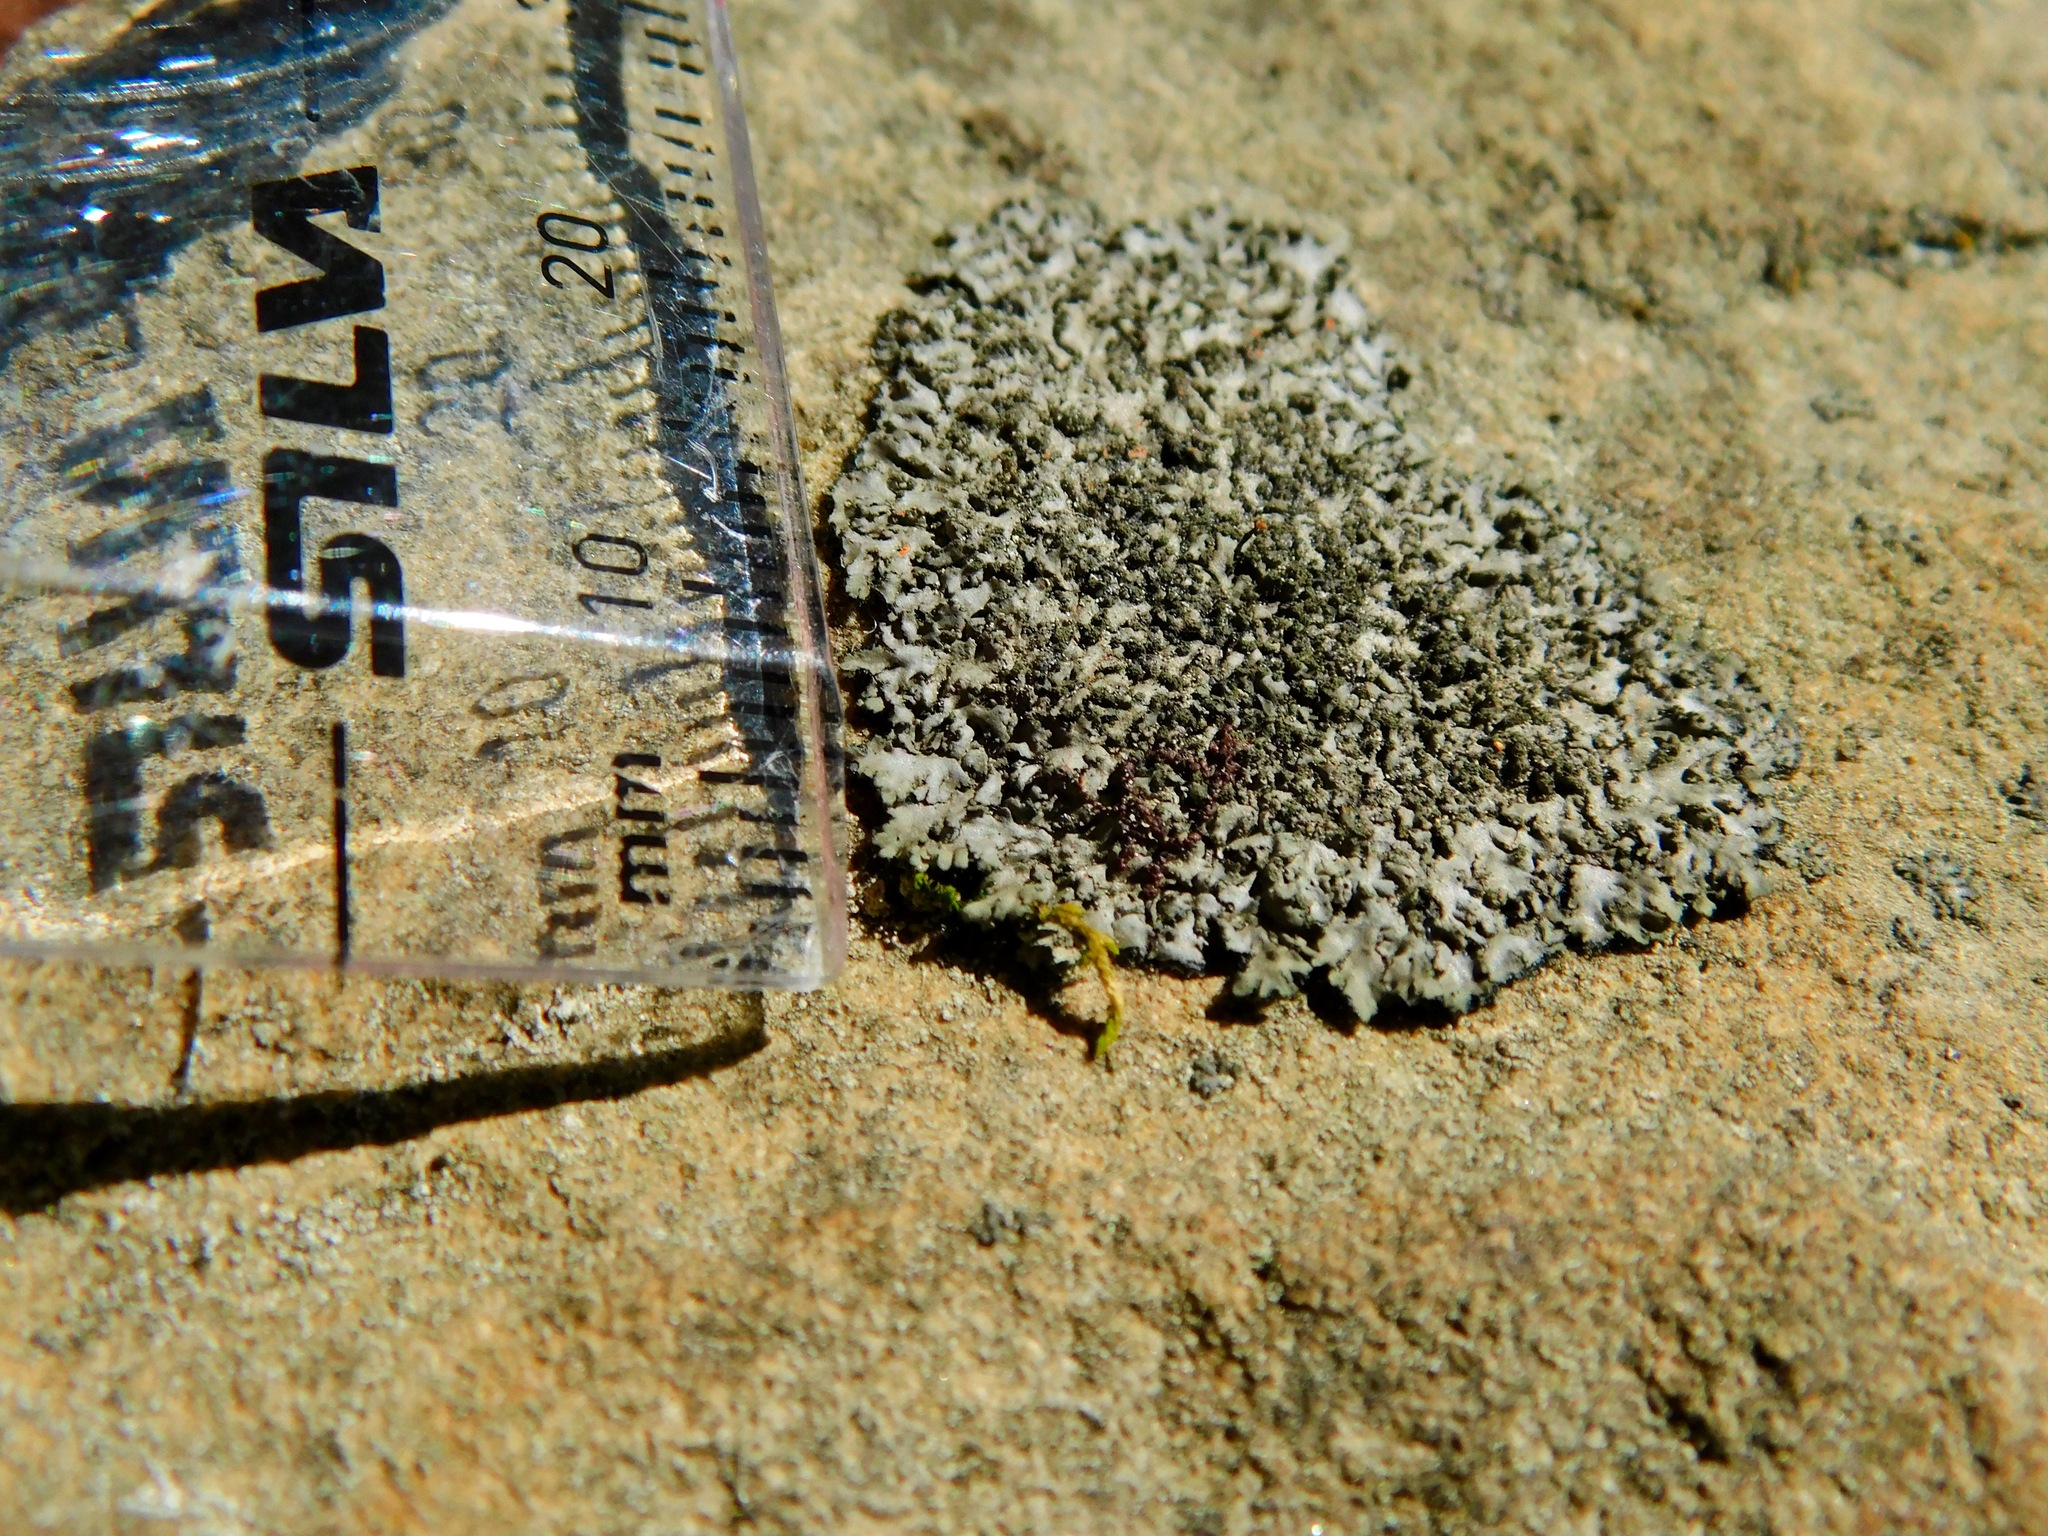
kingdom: Fungi
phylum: Ascomycota
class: Lecanoromycetes
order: Caliciales
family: Physciaceae
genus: Phaeophyscia
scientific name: Phaeophyscia rubropulchra
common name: Orange-cored shadow lichen
